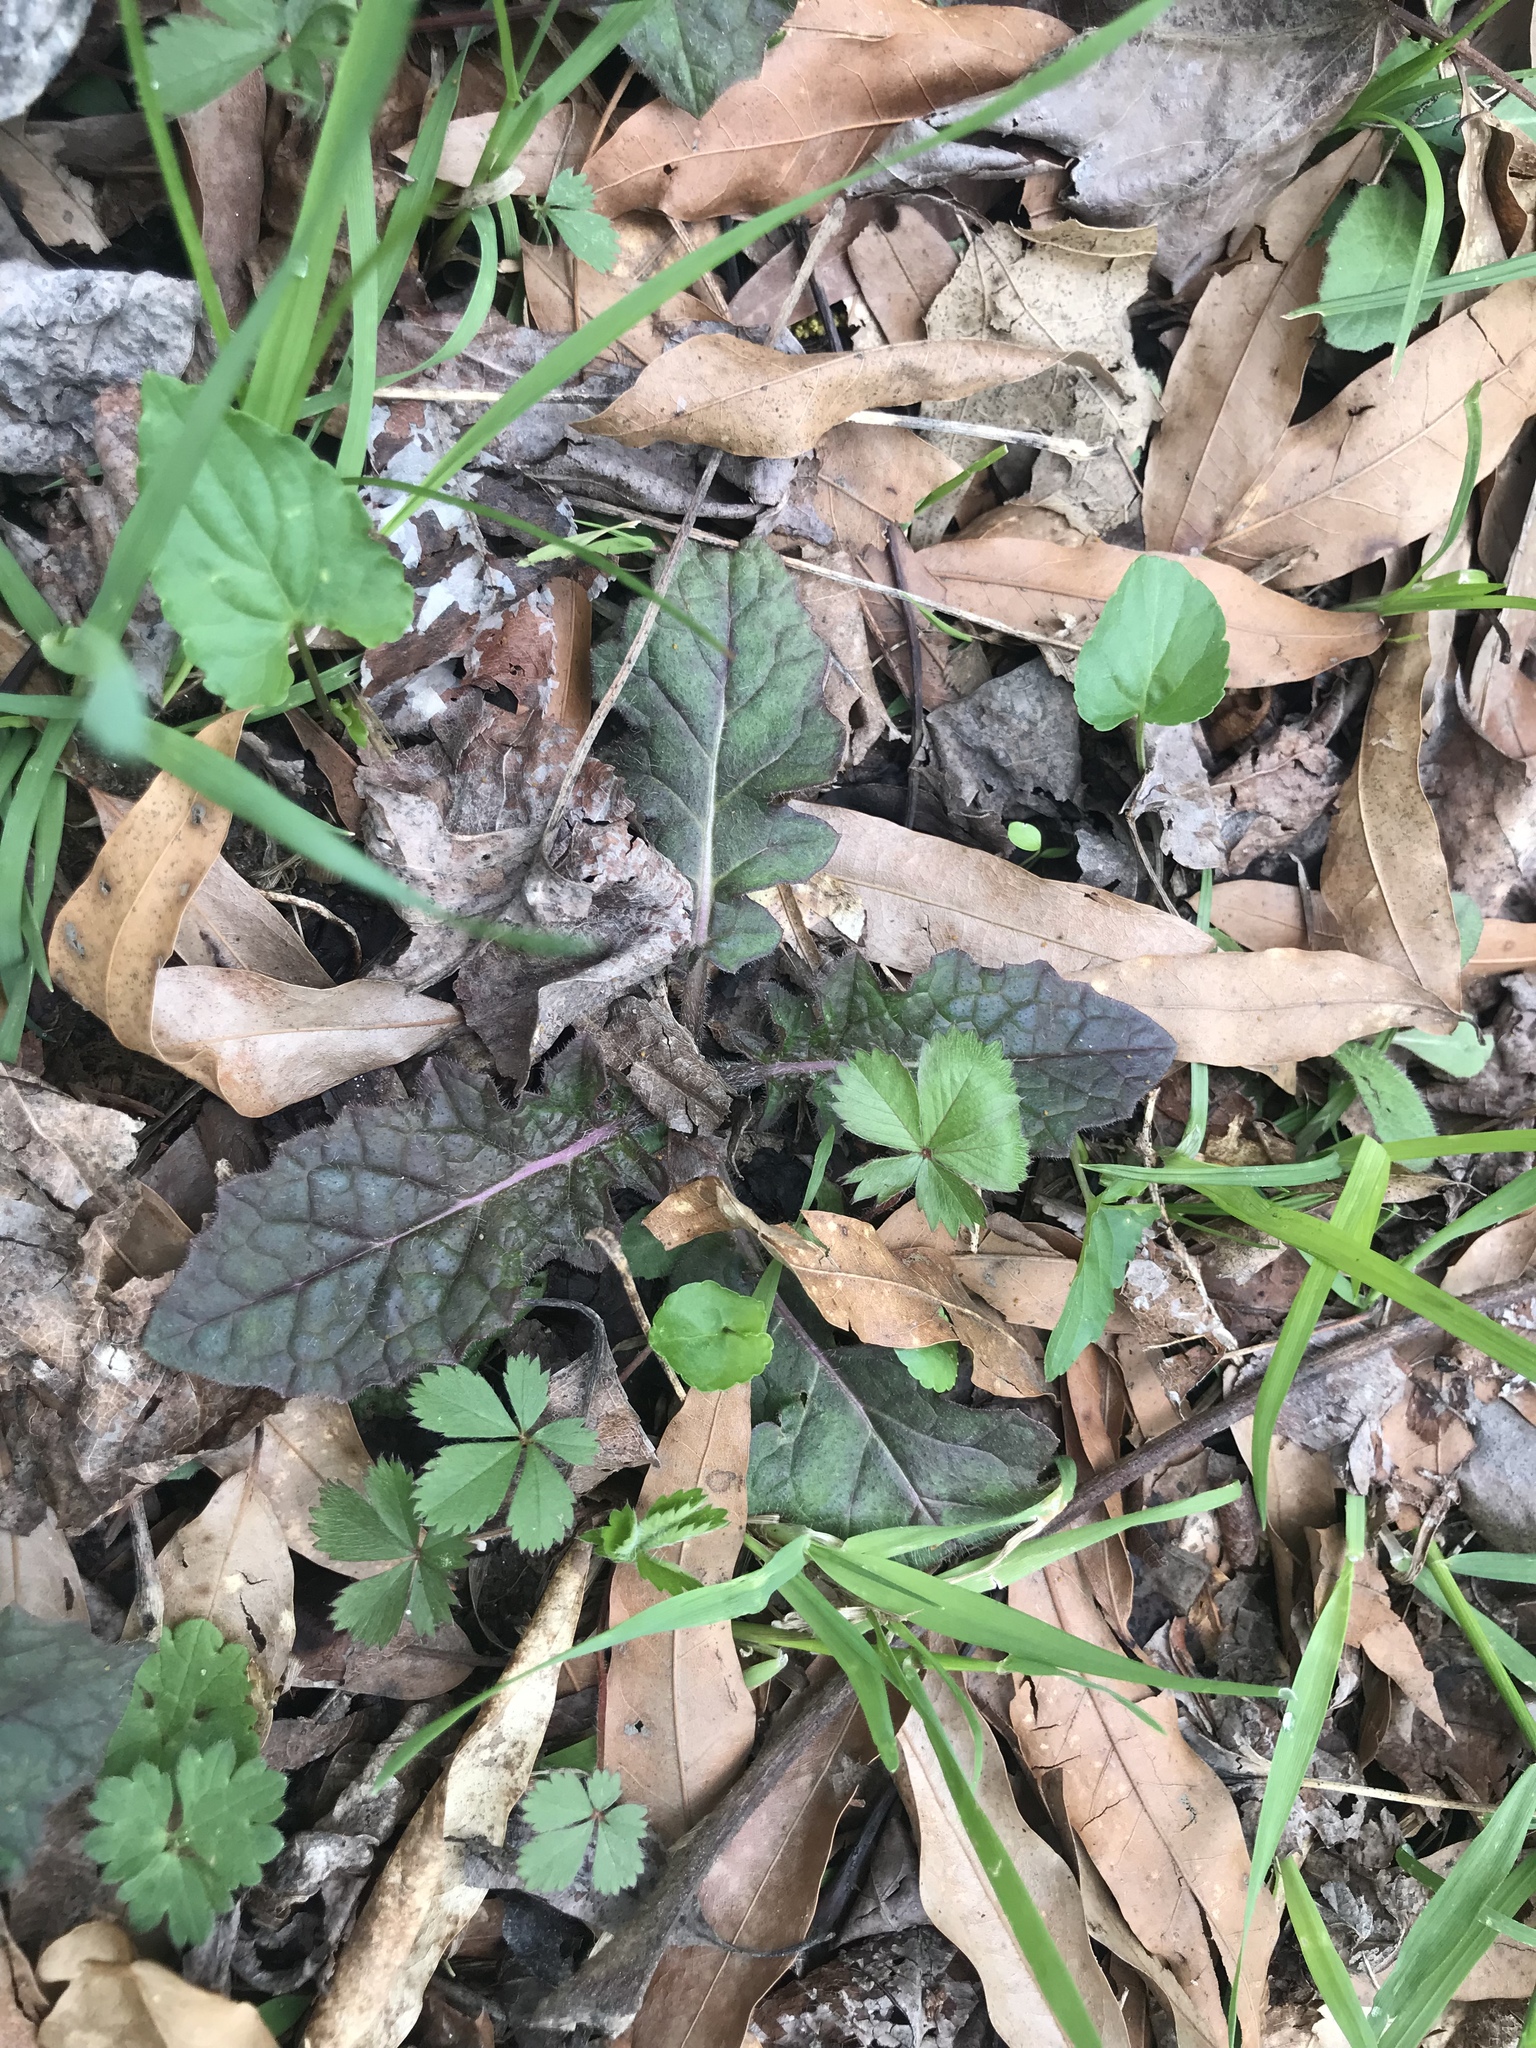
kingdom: Plantae
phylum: Tracheophyta
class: Magnoliopsida
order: Lamiales
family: Lamiaceae
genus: Salvia
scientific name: Salvia lyrata
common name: Cancerweed
